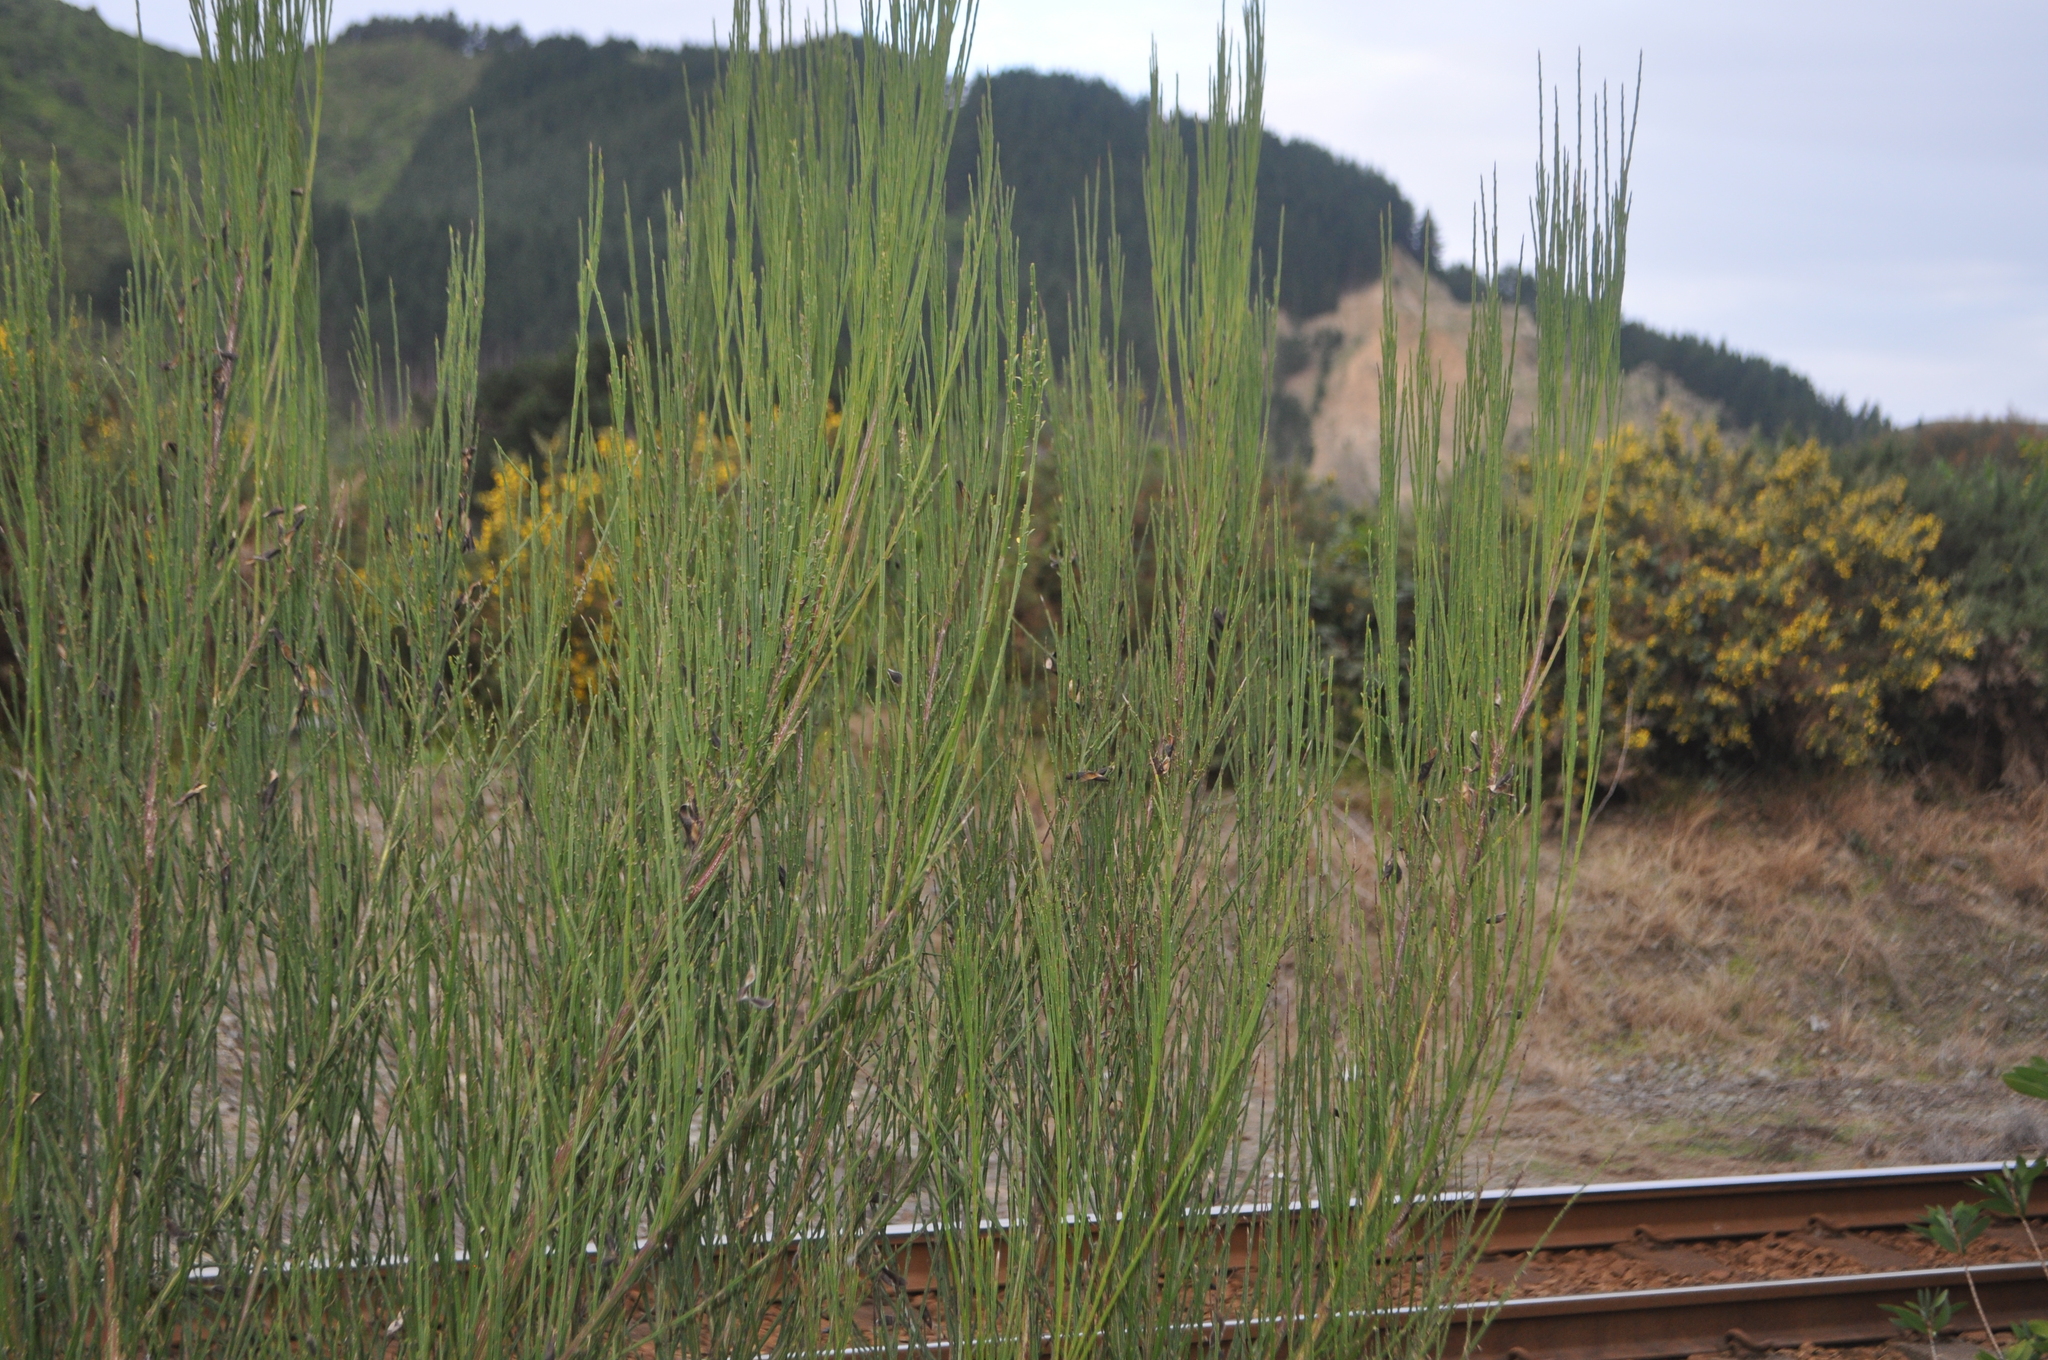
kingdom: Plantae
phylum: Tracheophyta
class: Magnoliopsida
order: Fabales
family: Fabaceae
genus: Cytisus
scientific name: Cytisus scoparius
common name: Scotch broom
